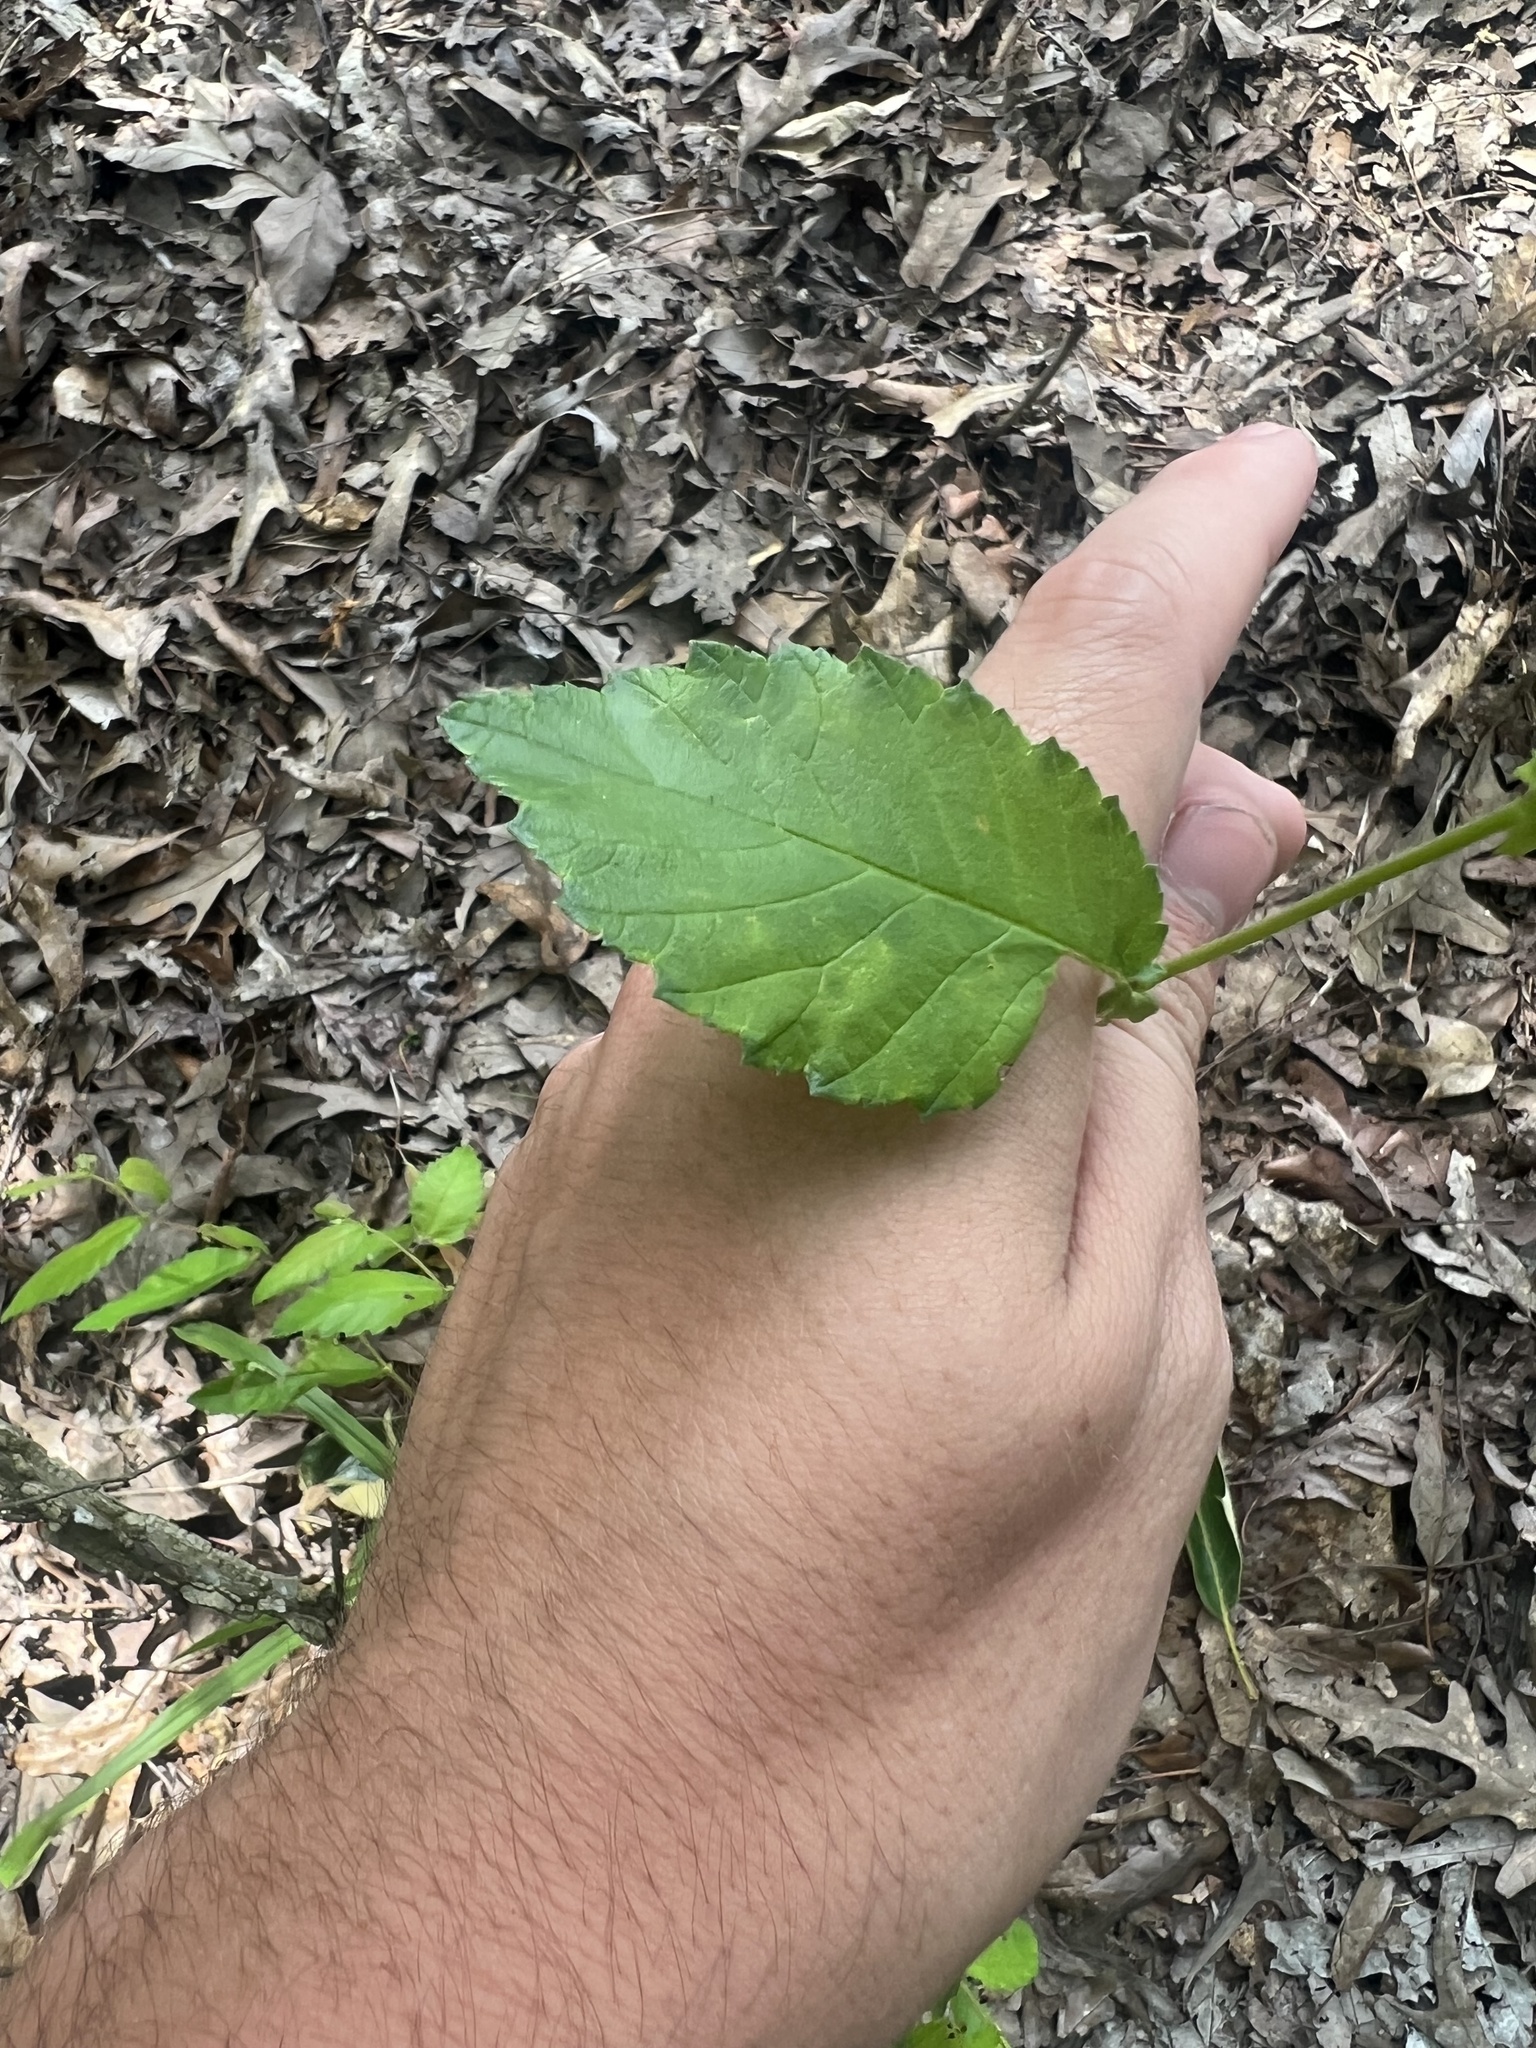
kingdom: Plantae
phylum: Tracheophyta
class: Magnoliopsida
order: Rosales
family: Ulmaceae
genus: Ulmus
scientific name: Ulmus alata
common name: Winged elm
